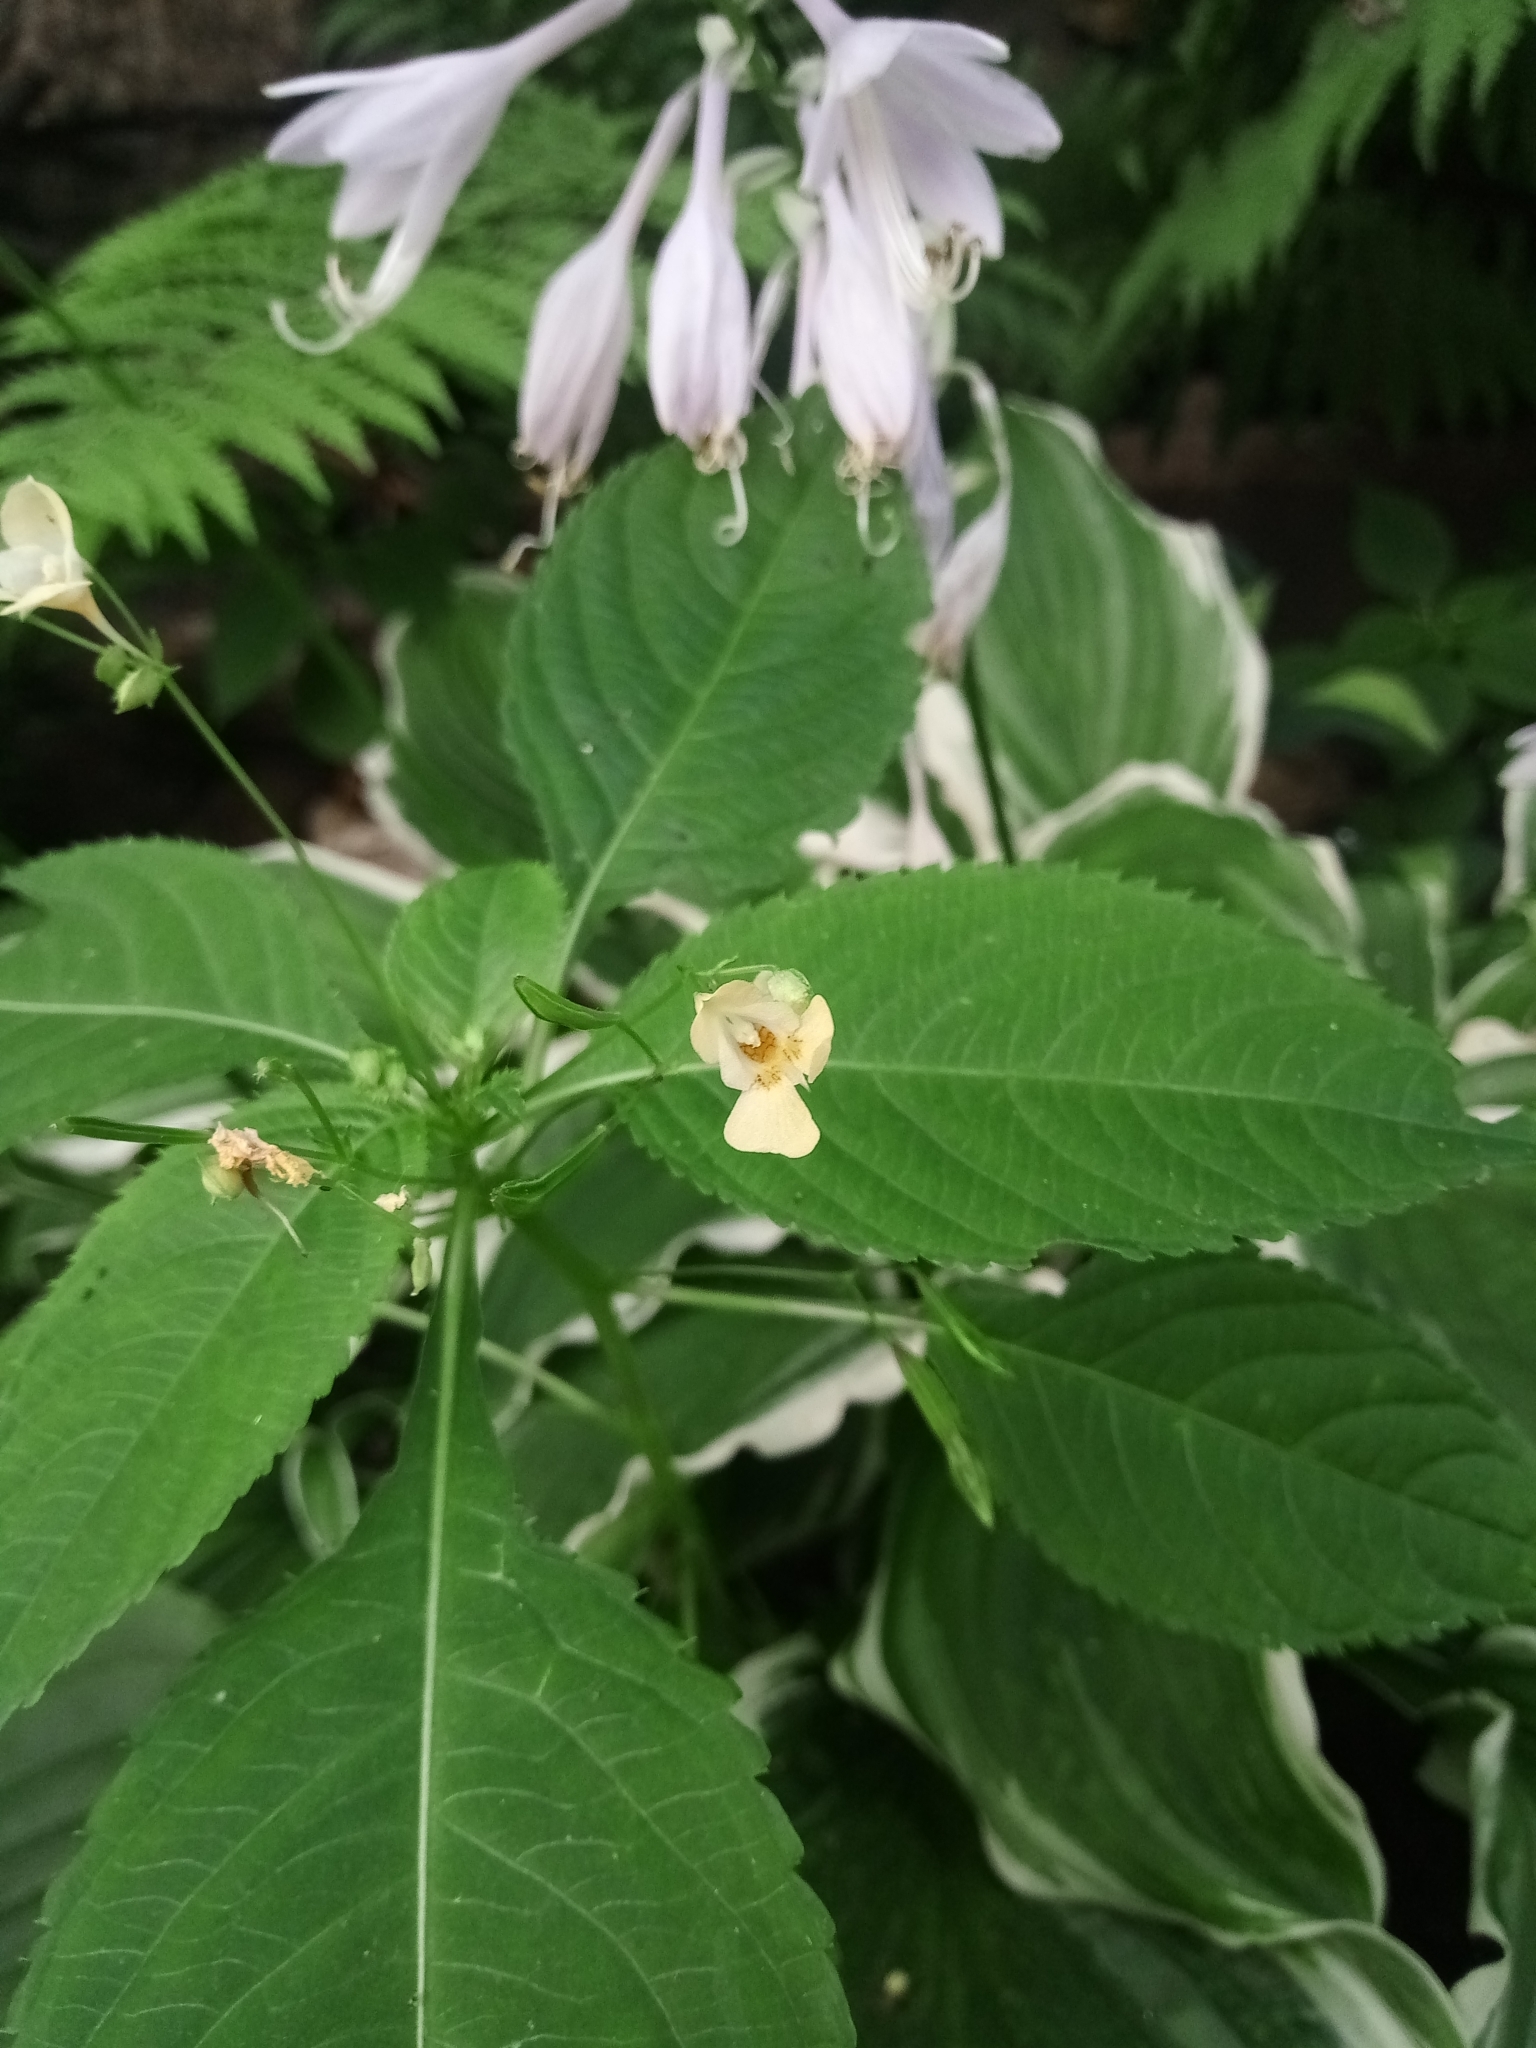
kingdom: Plantae
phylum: Tracheophyta
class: Magnoliopsida
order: Ericales
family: Balsaminaceae
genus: Impatiens
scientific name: Impatiens parviflora
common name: Small balsam
